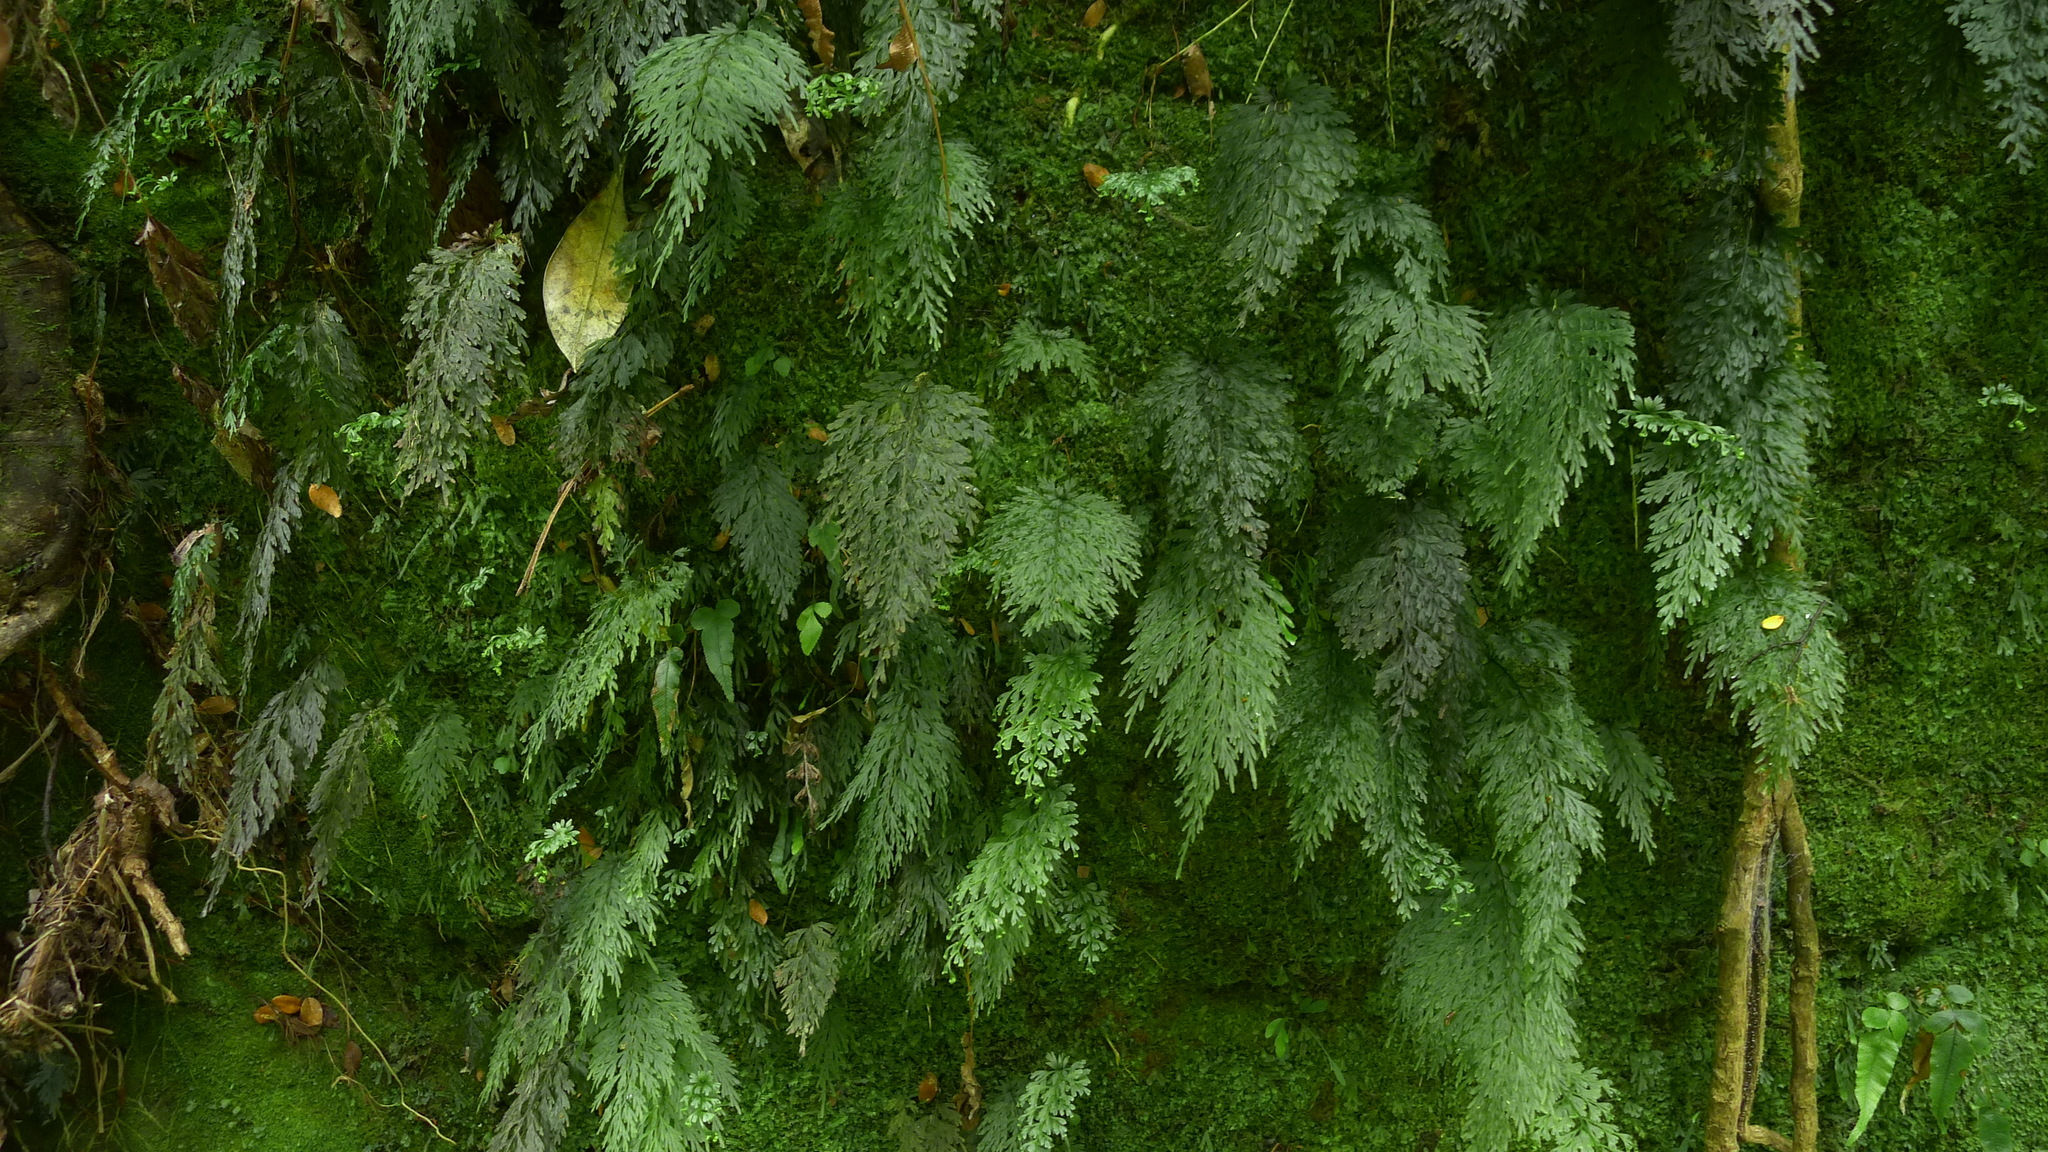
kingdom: Plantae
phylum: Tracheophyta
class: Polypodiopsida
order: Hymenophyllales
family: Hymenophyllaceae
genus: Hymenophyllum
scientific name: Hymenophyllum demissum
